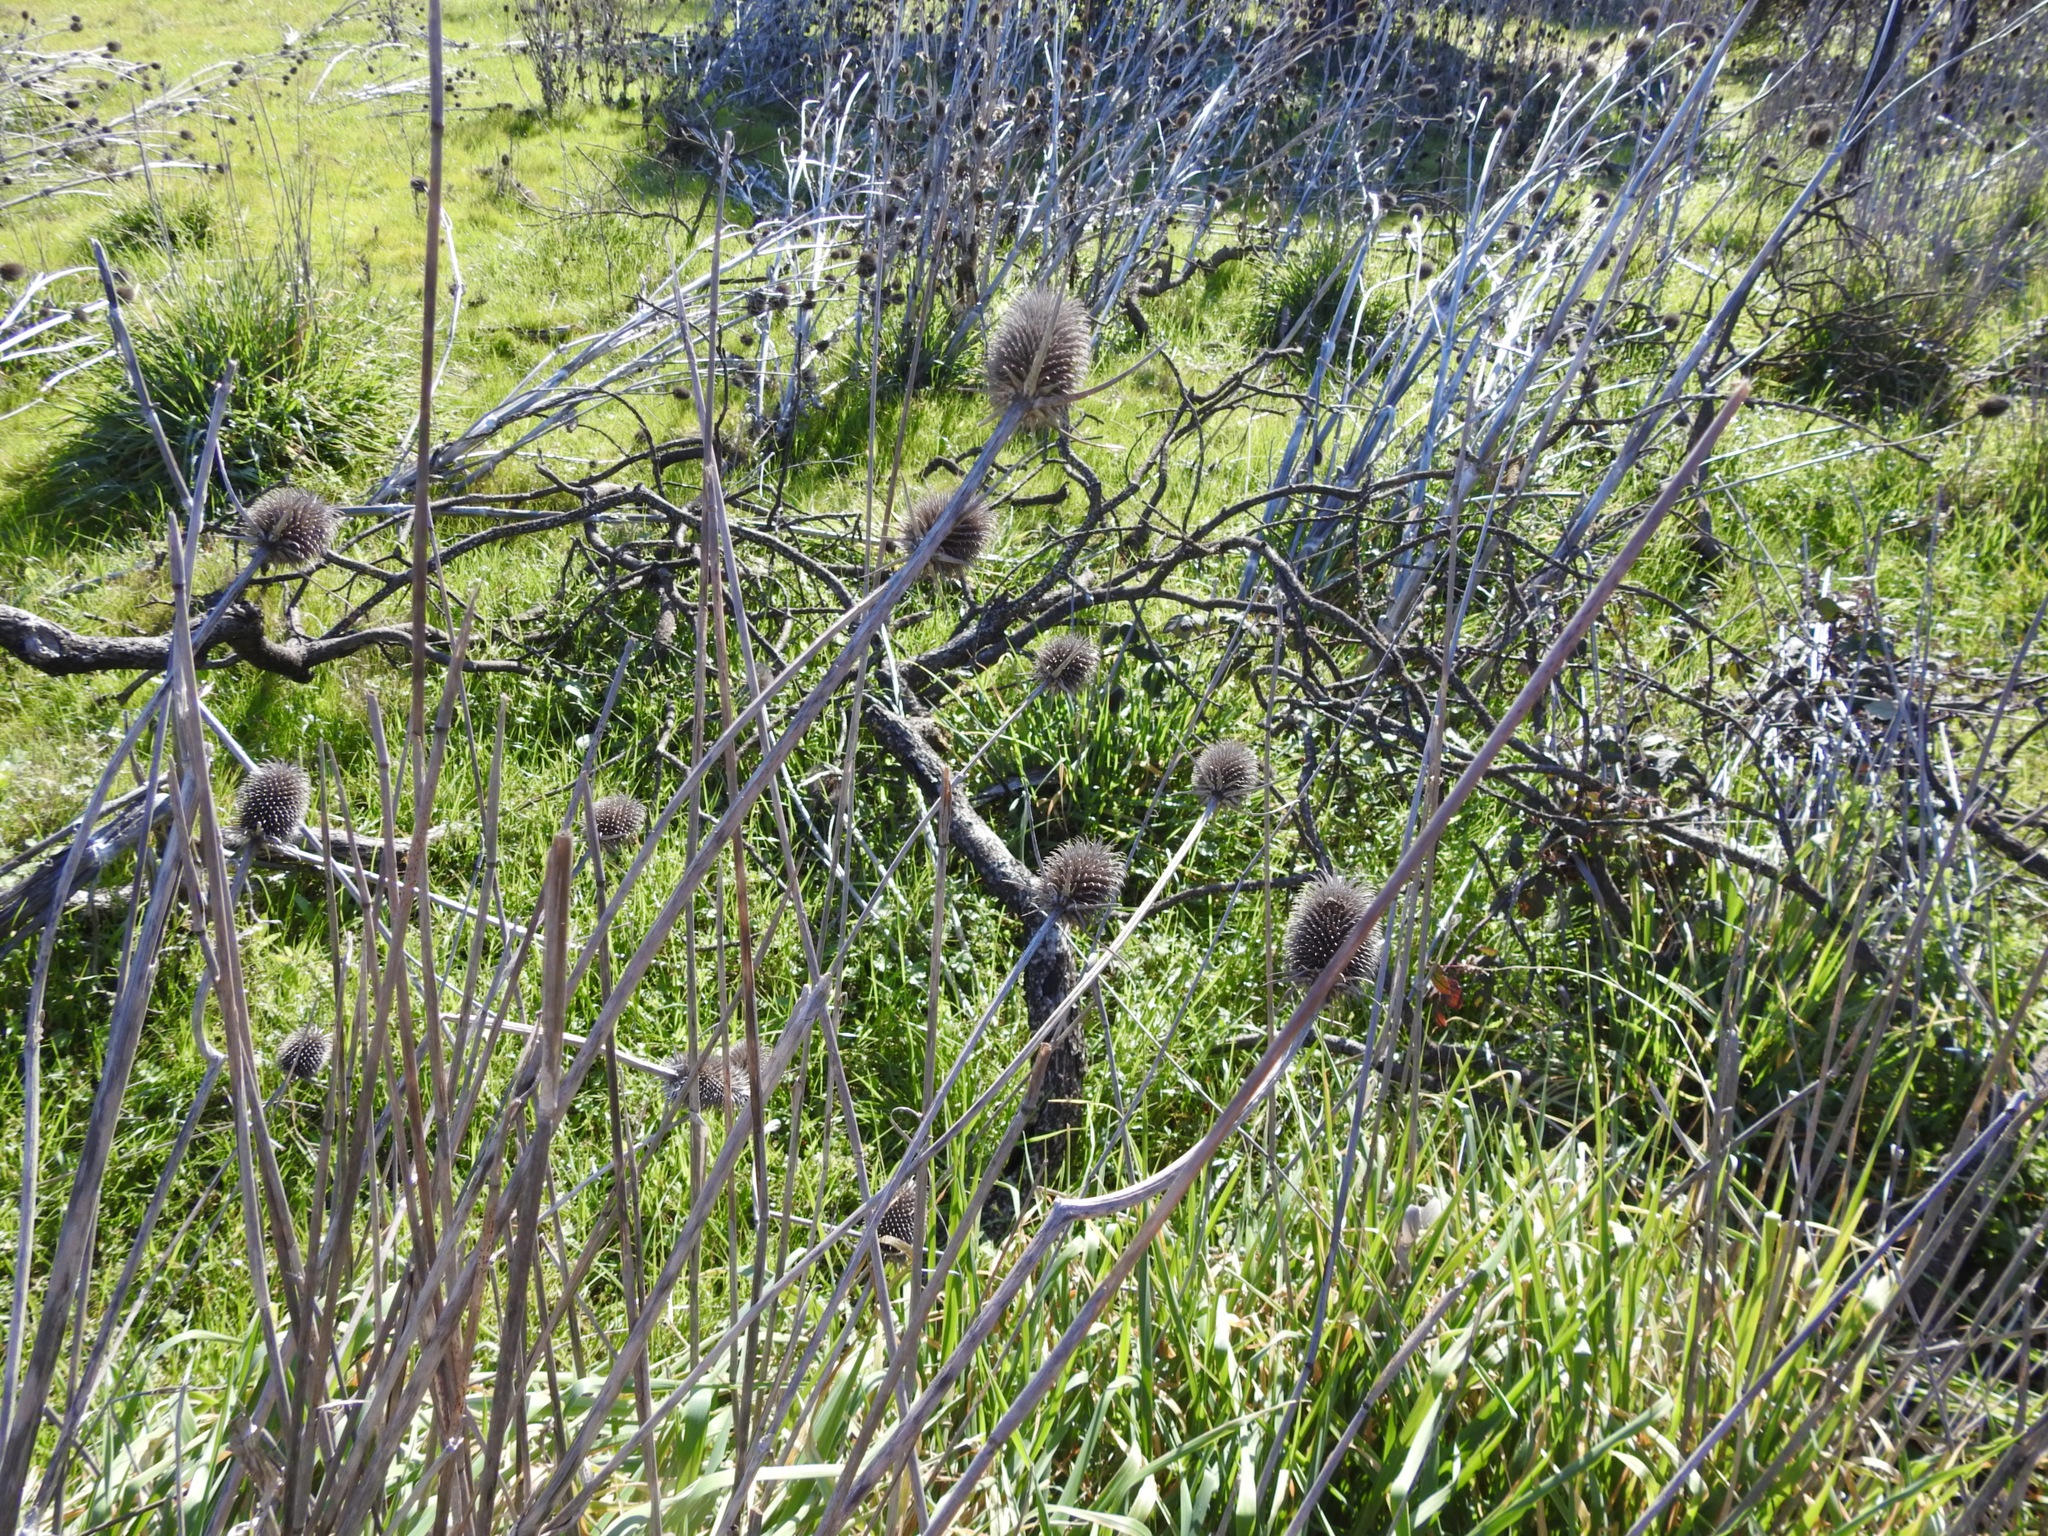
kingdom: Plantae
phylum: Tracheophyta
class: Magnoliopsida
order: Dipsacales
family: Caprifoliaceae
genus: Dipsacus
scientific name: Dipsacus sativus
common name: Fuller's teasel
